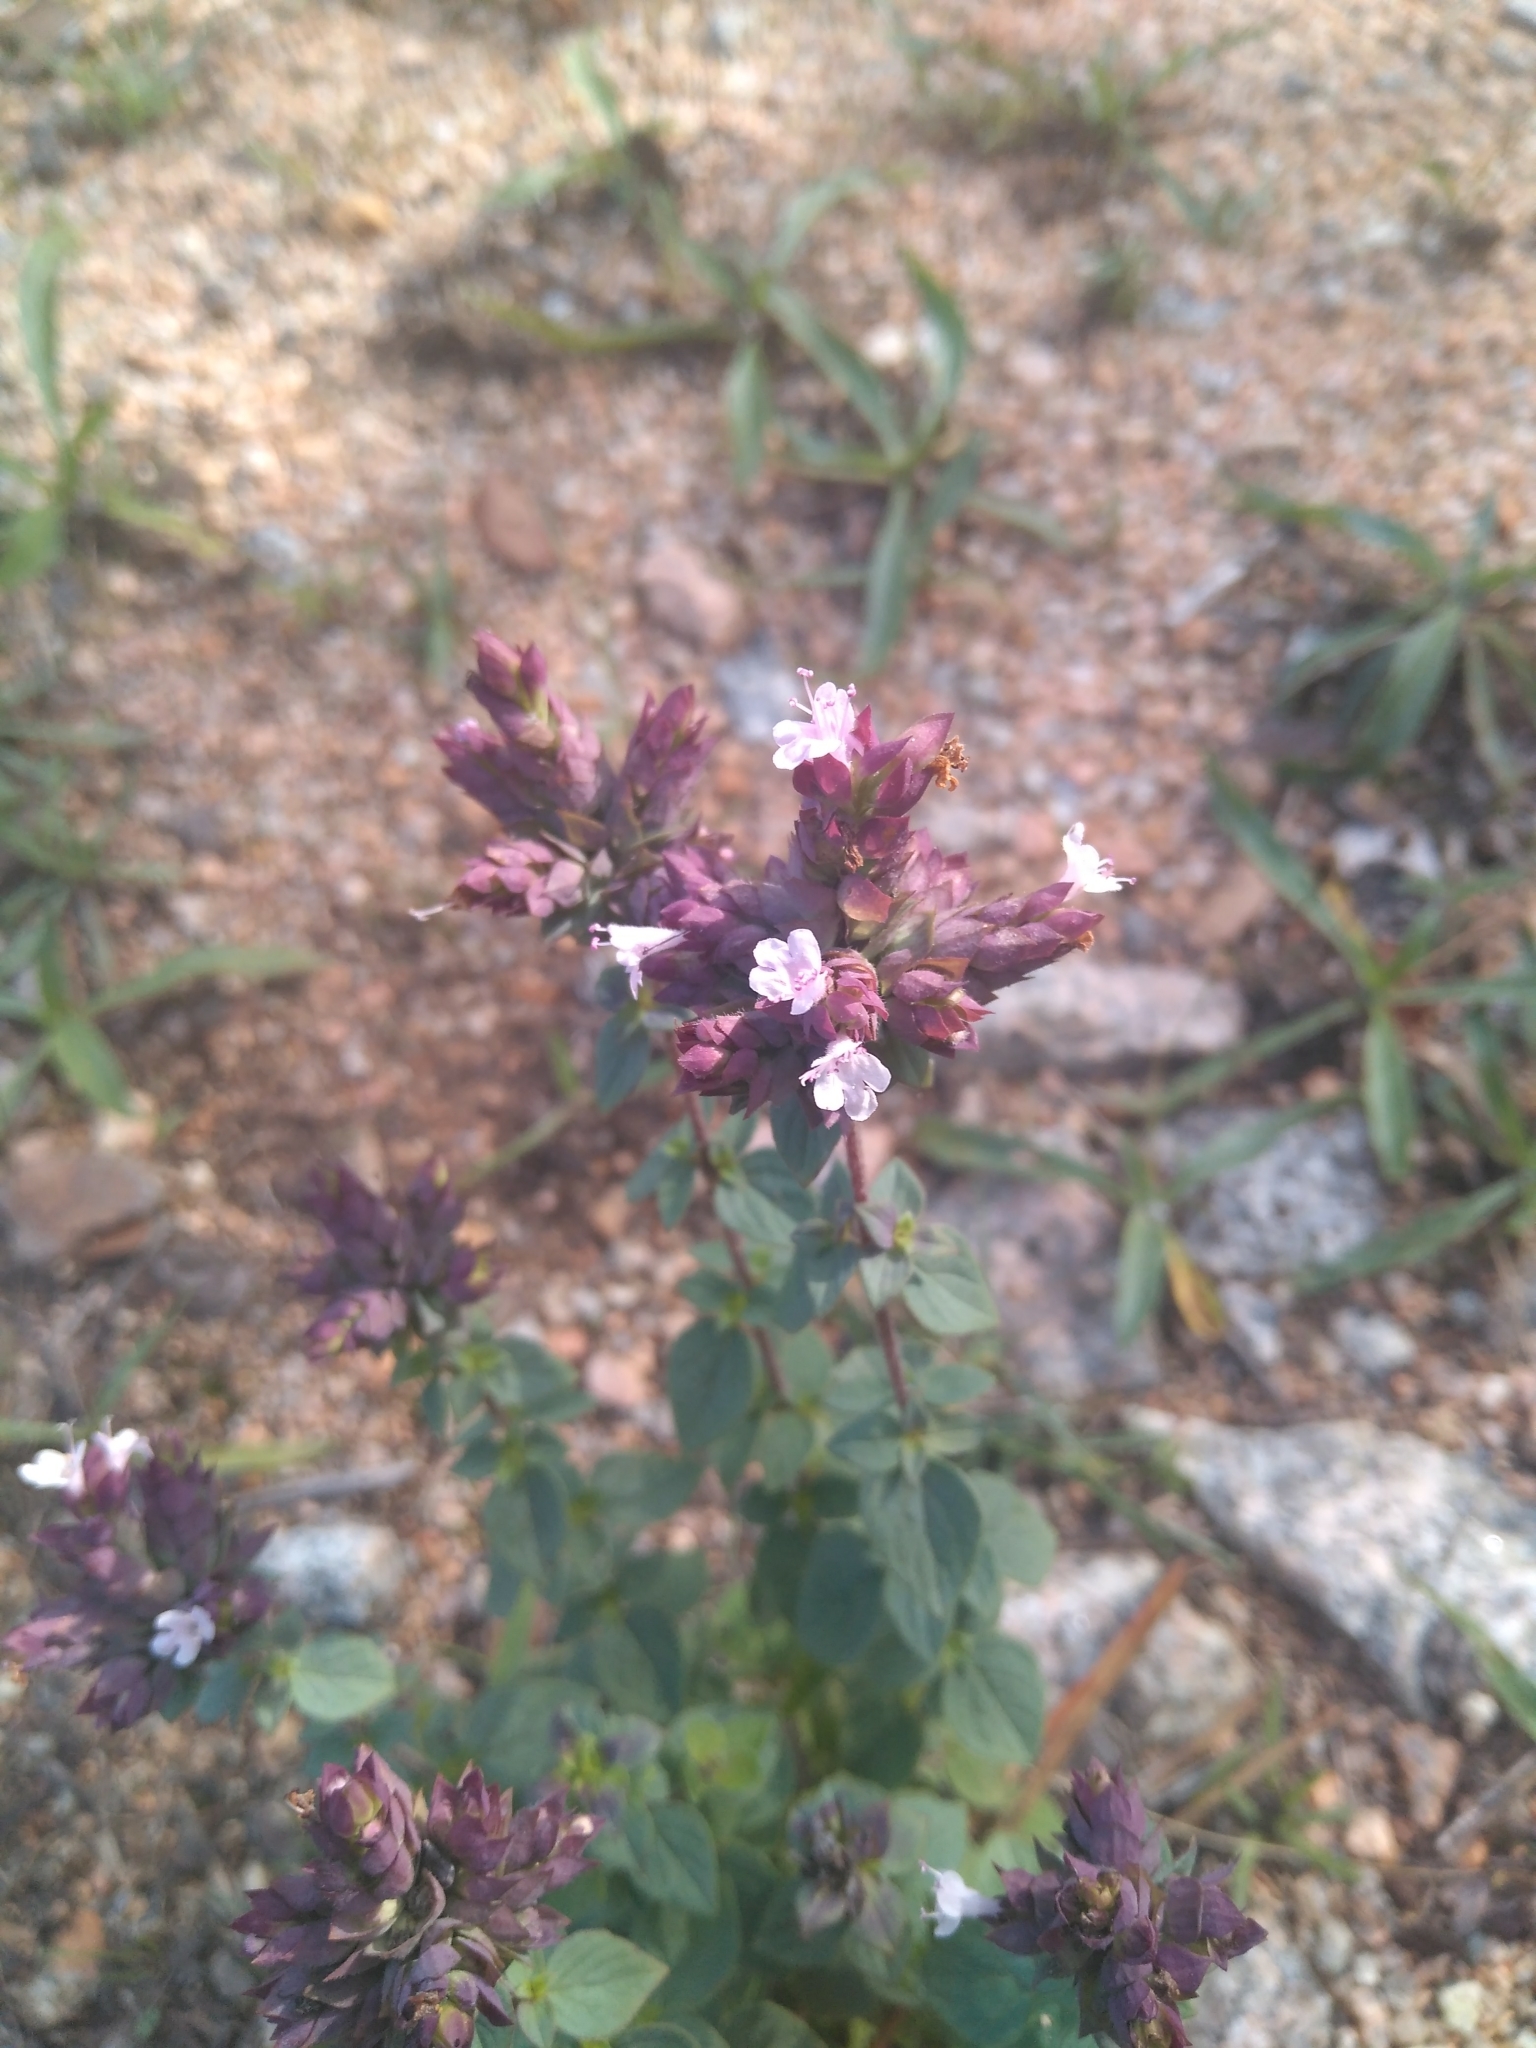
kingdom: Plantae
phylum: Tracheophyta
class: Magnoliopsida
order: Lamiales
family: Lamiaceae
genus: Origanum
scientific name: Origanum vulgare
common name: Wild marjoram
